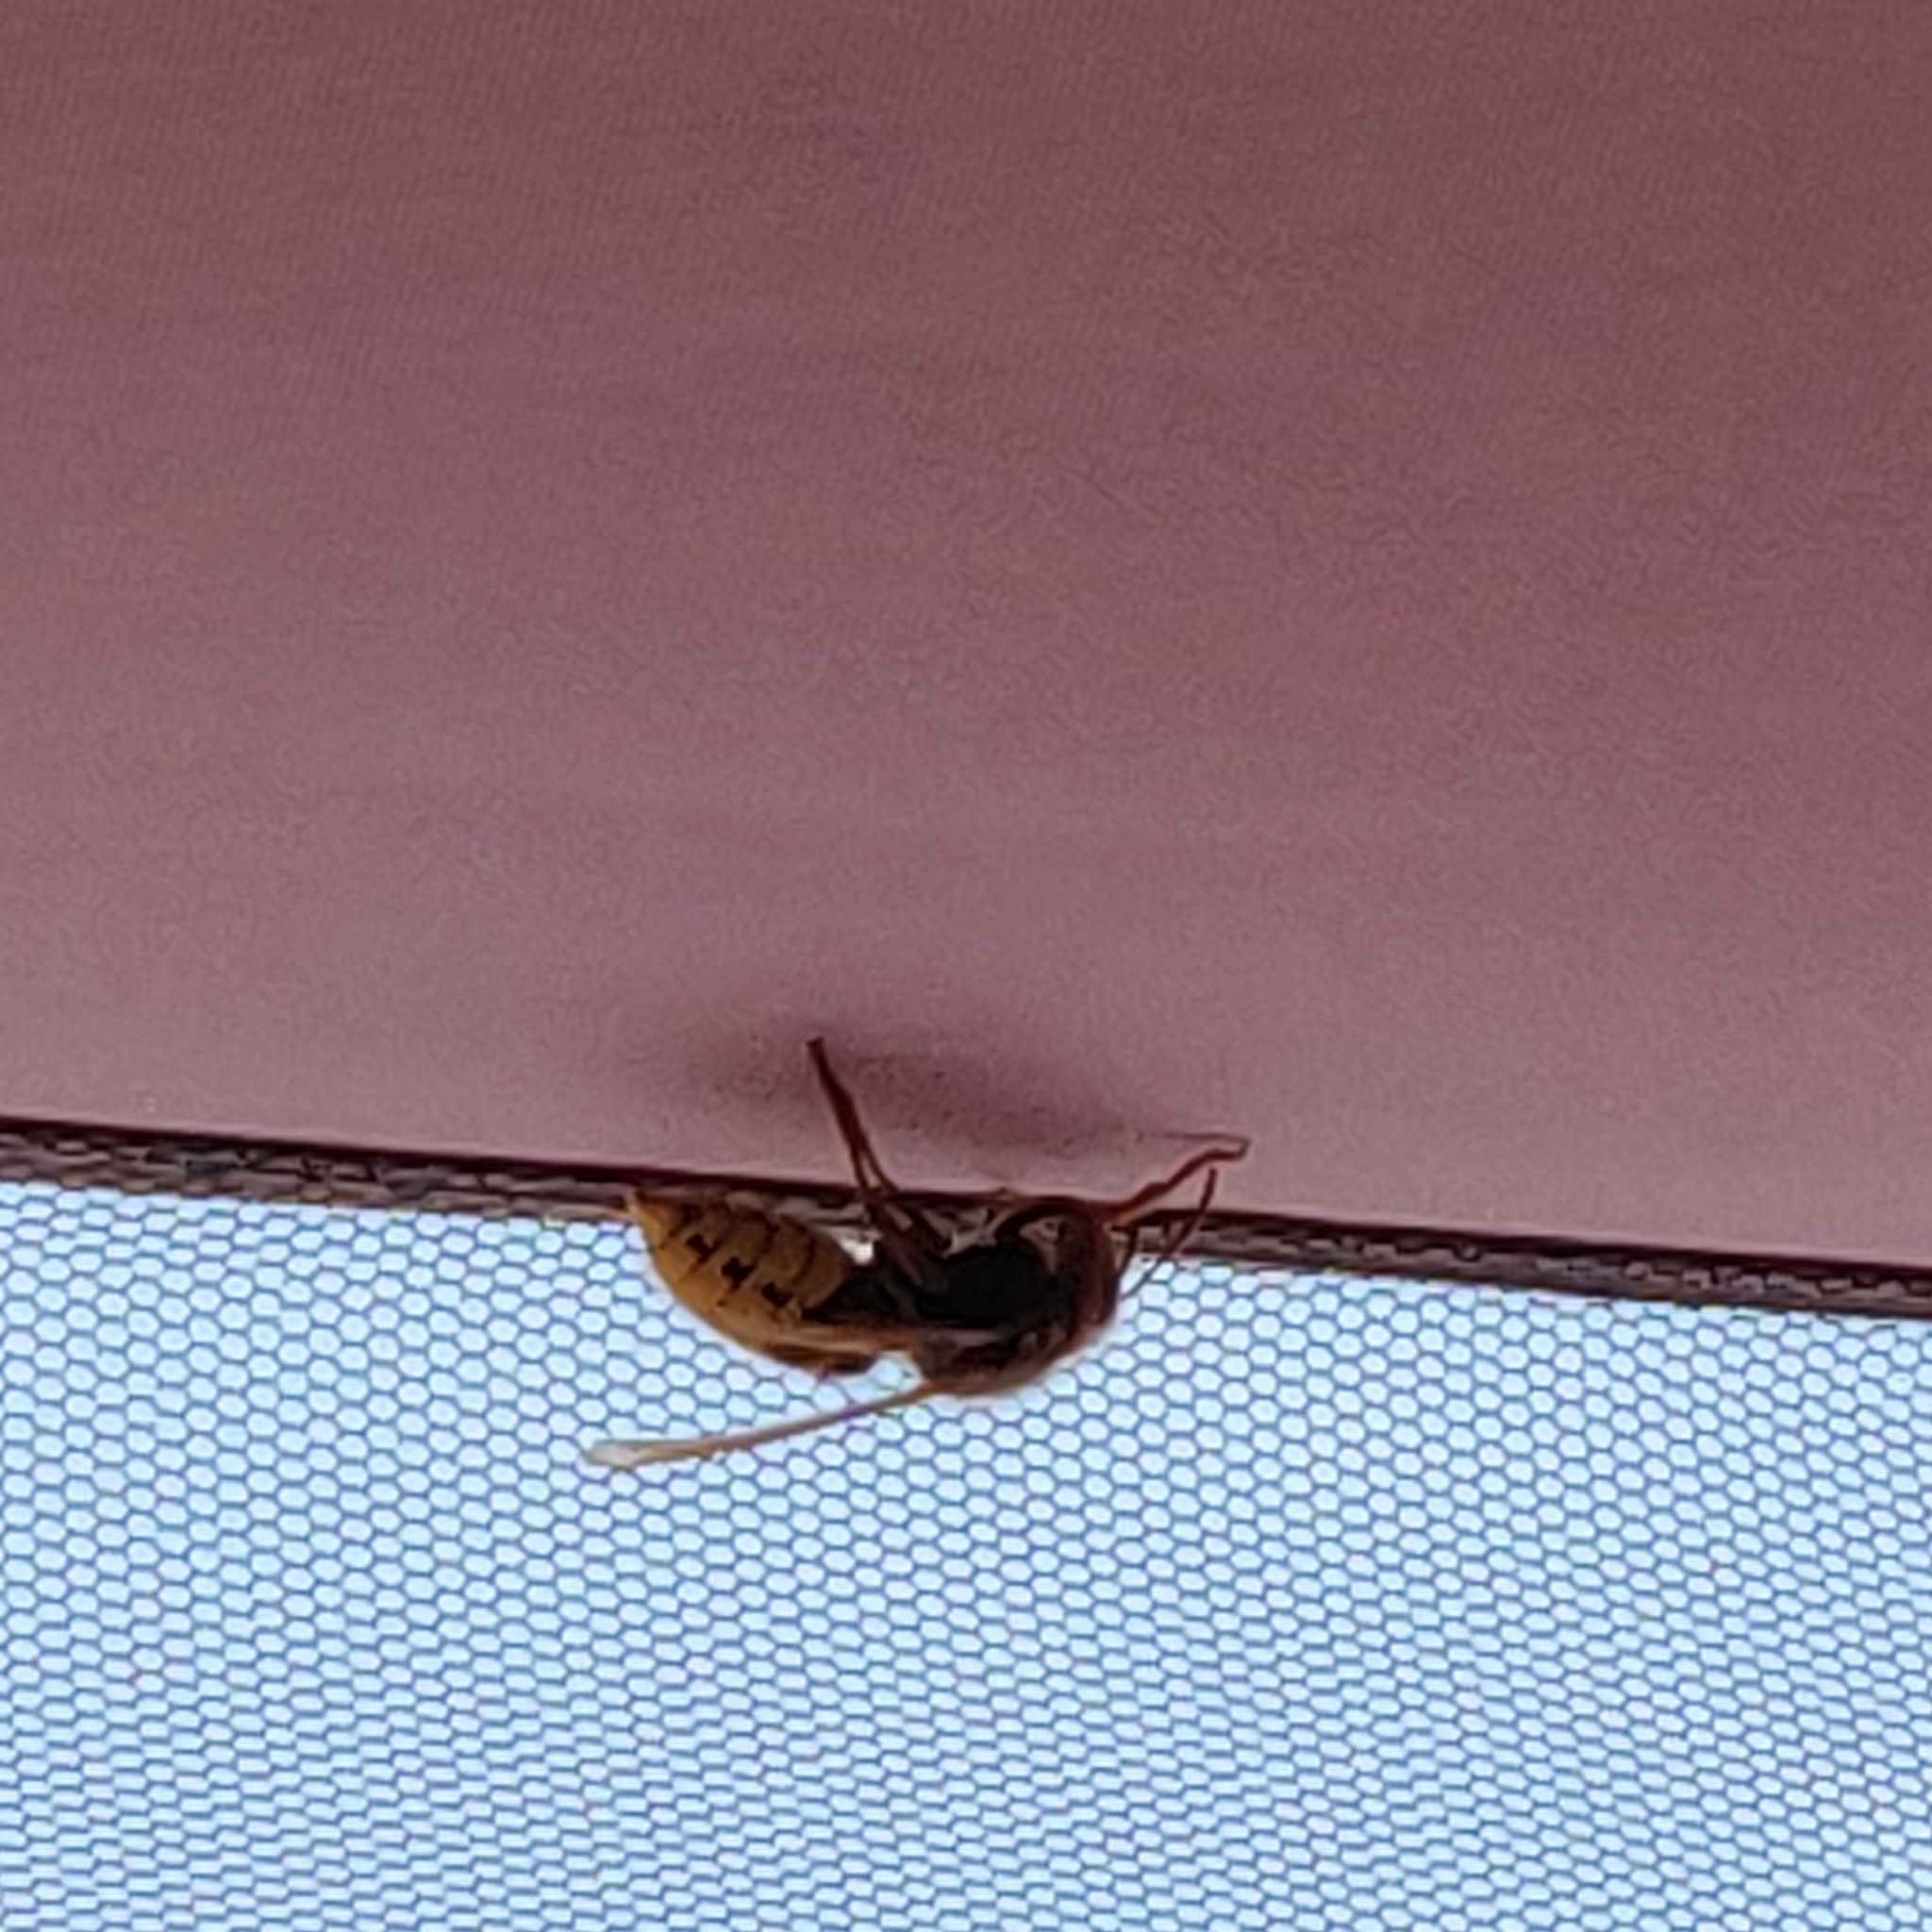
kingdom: Animalia
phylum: Arthropoda
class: Insecta
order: Hymenoptera
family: Vespidae
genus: Vespa
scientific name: Vespa crabro
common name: Hornet
